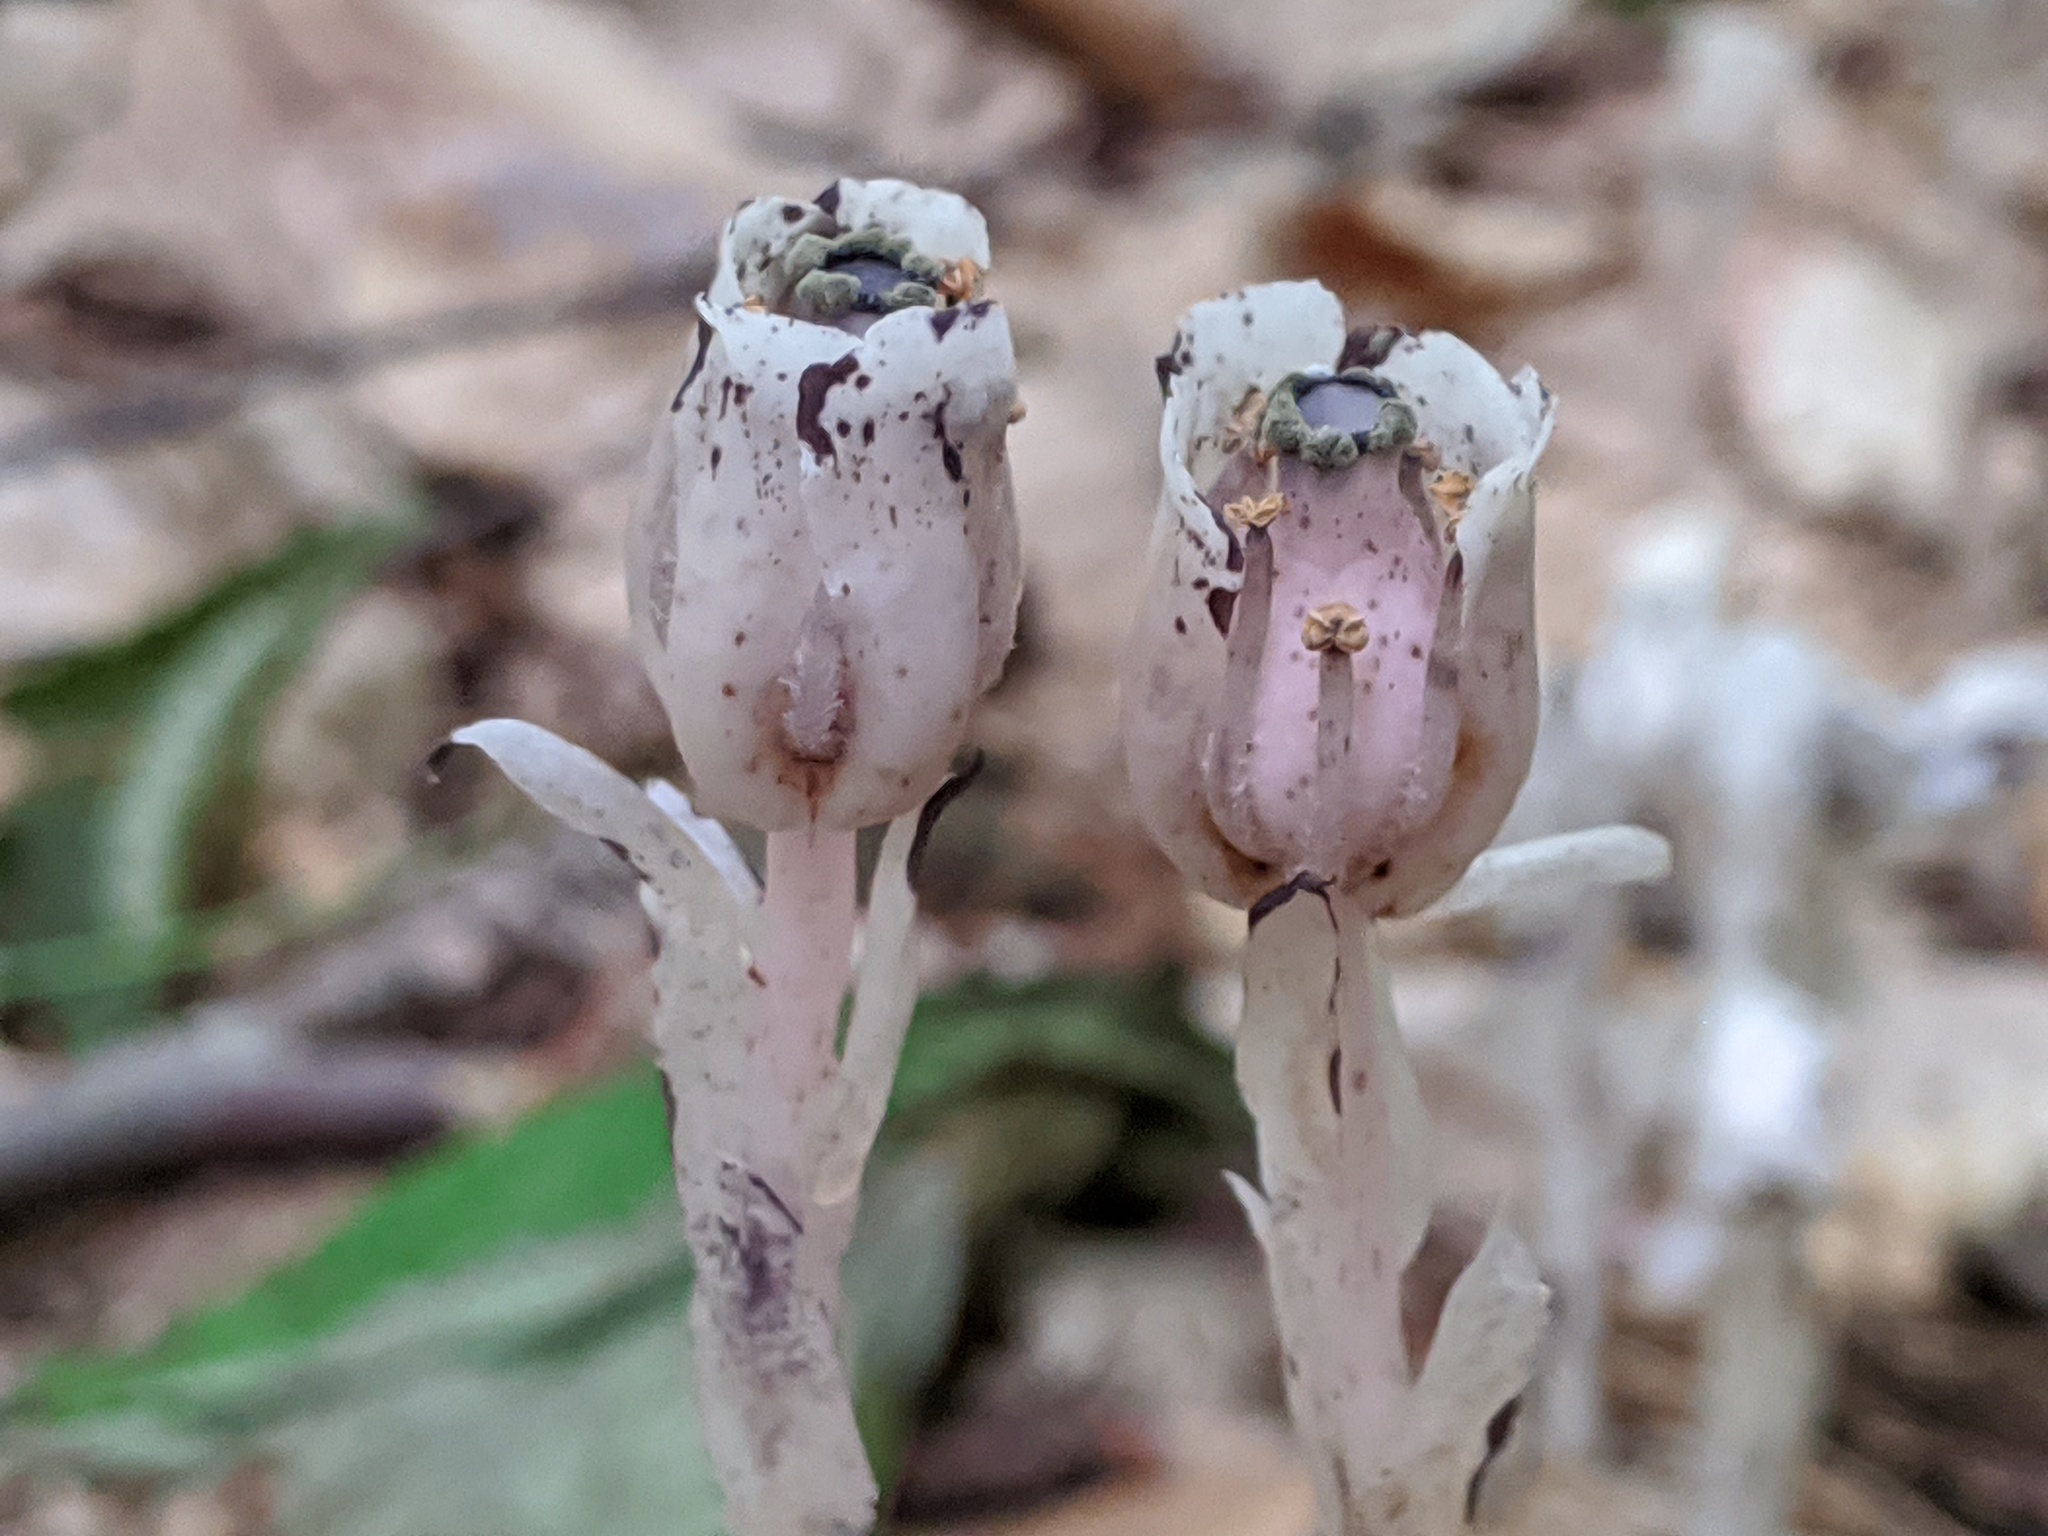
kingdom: Plantae
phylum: Tracheophyta
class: Magnoliopsida
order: Ericales
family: Ericaceae
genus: Monotropa
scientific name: Monotropa uniflora
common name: Convulsion root
